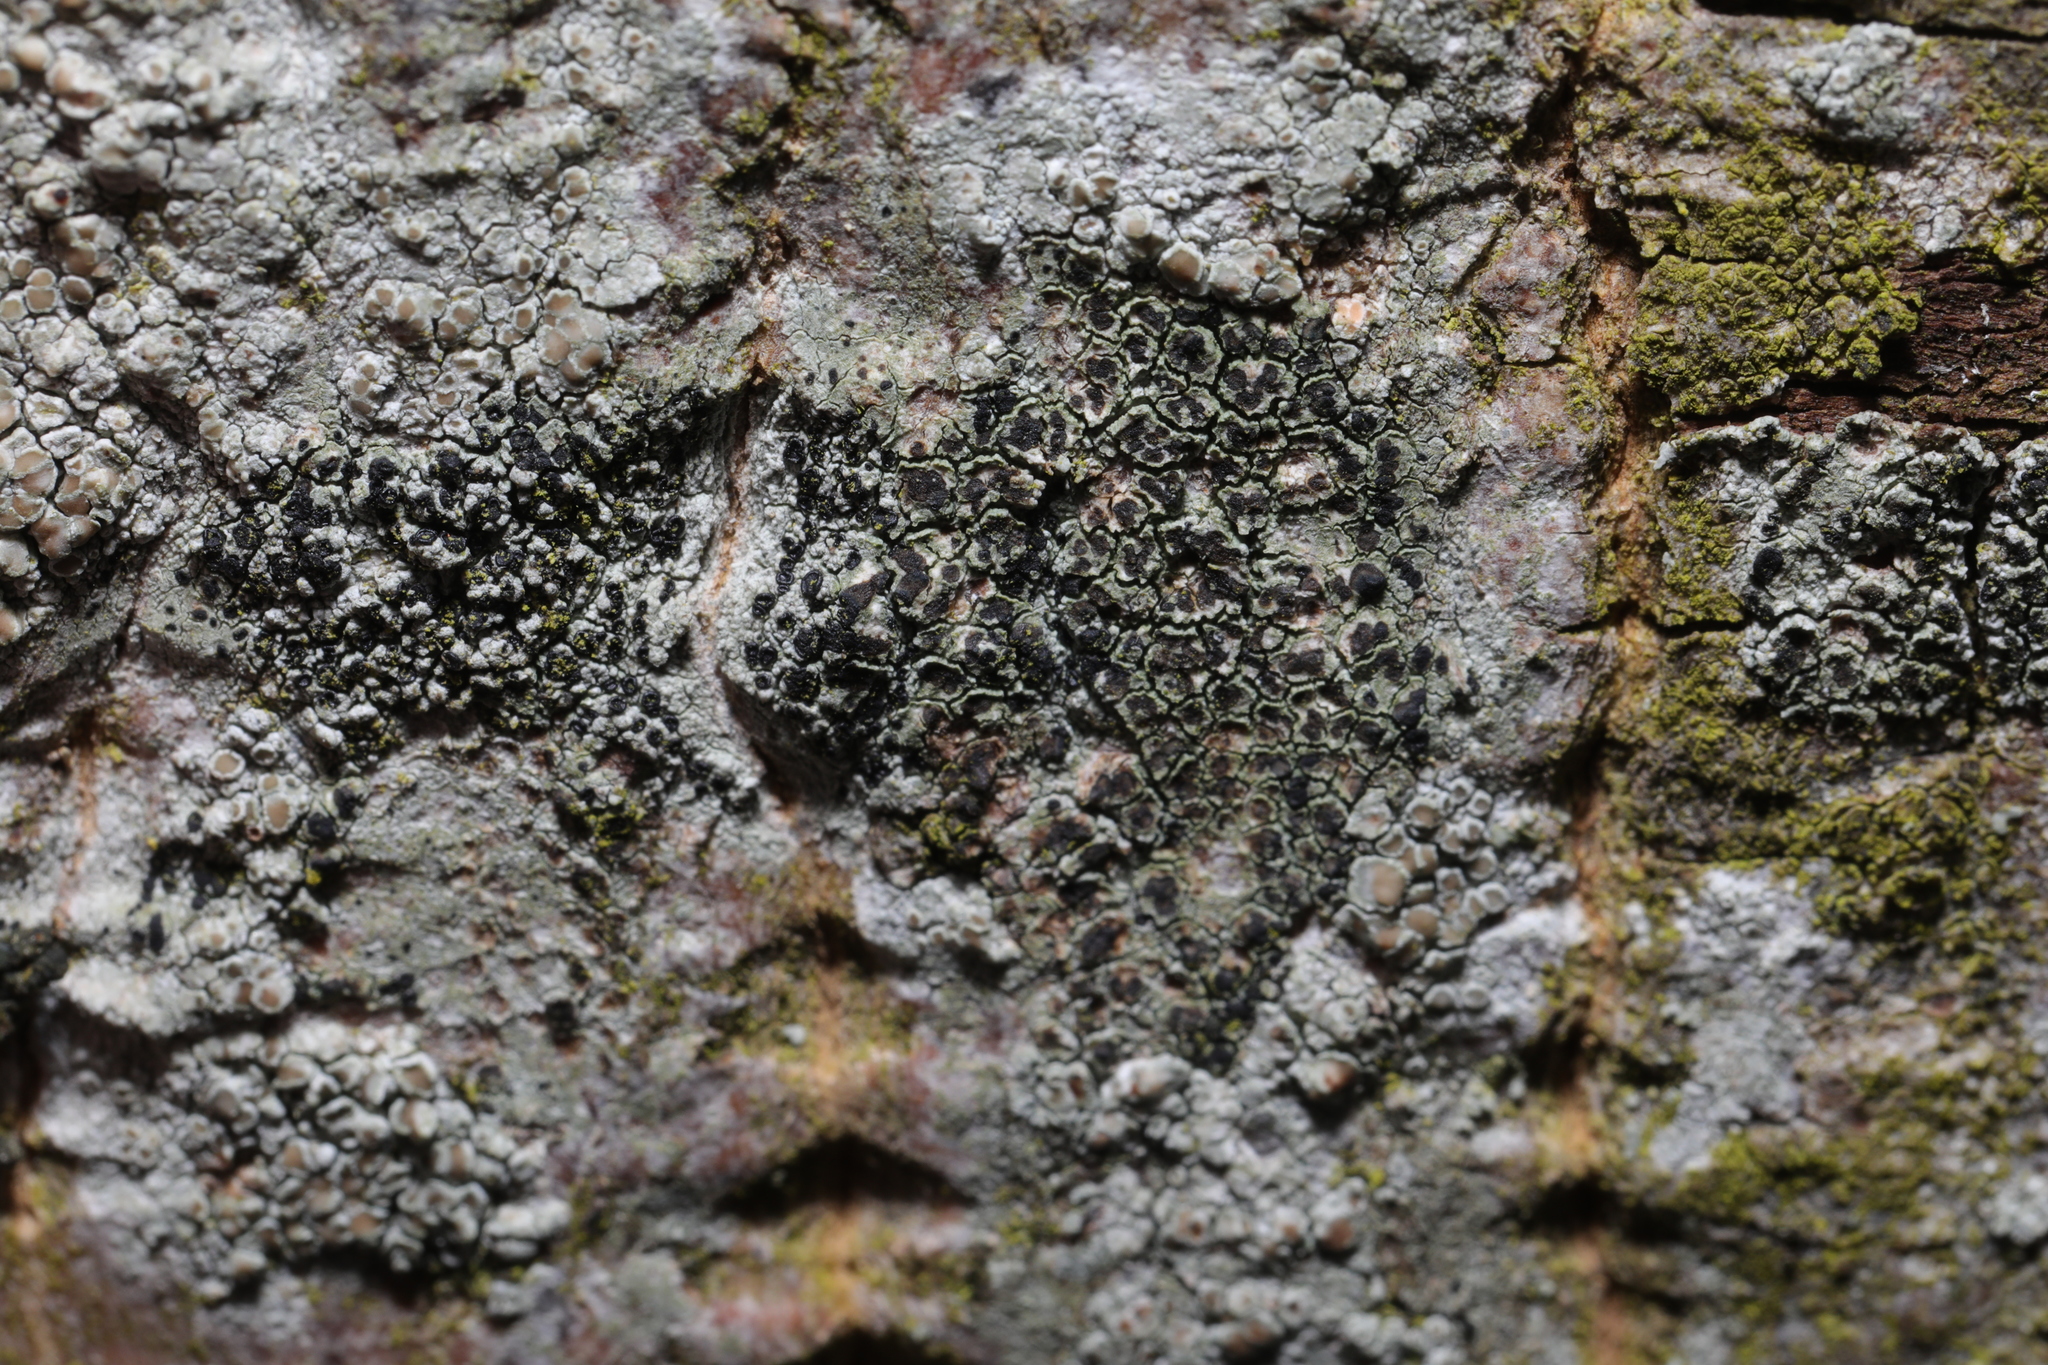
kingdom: Fungi
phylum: Ascomycota
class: Lecanoromycetes
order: Lecanorales
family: Lecanoraceae
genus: Lecidella
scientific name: Lecidella elaeochroma
